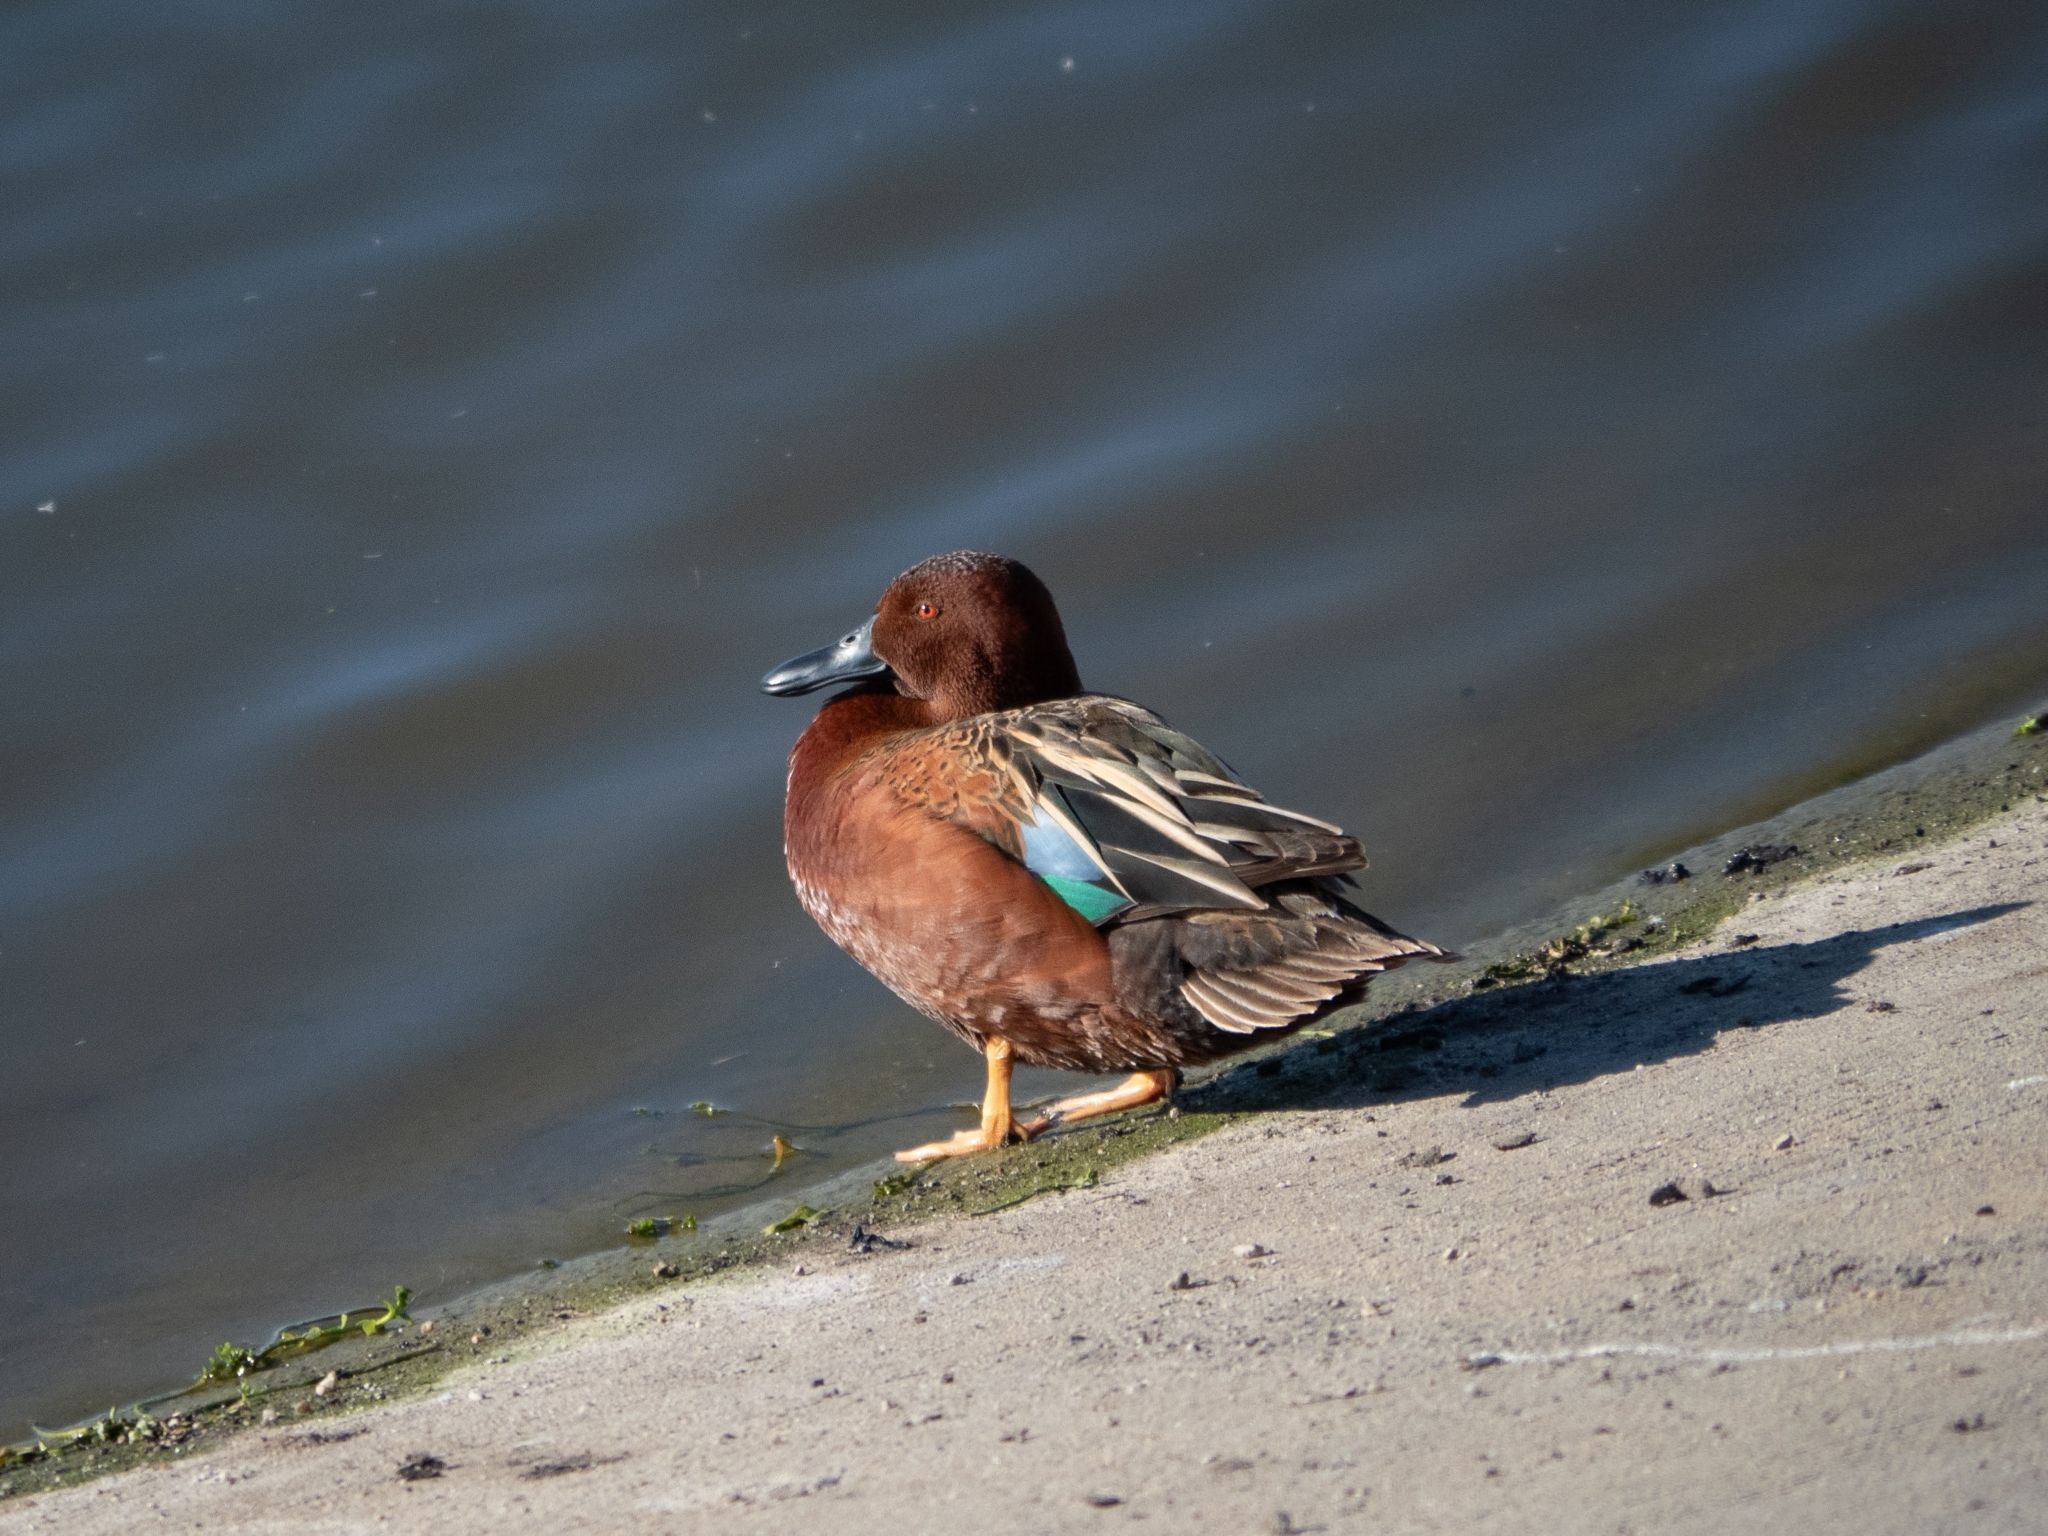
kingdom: Animalia
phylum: Chordata
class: Aves
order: Anseriformes
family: Anatidae
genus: Spatula
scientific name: Spatula cyanoptera
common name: Cinnamon teal
